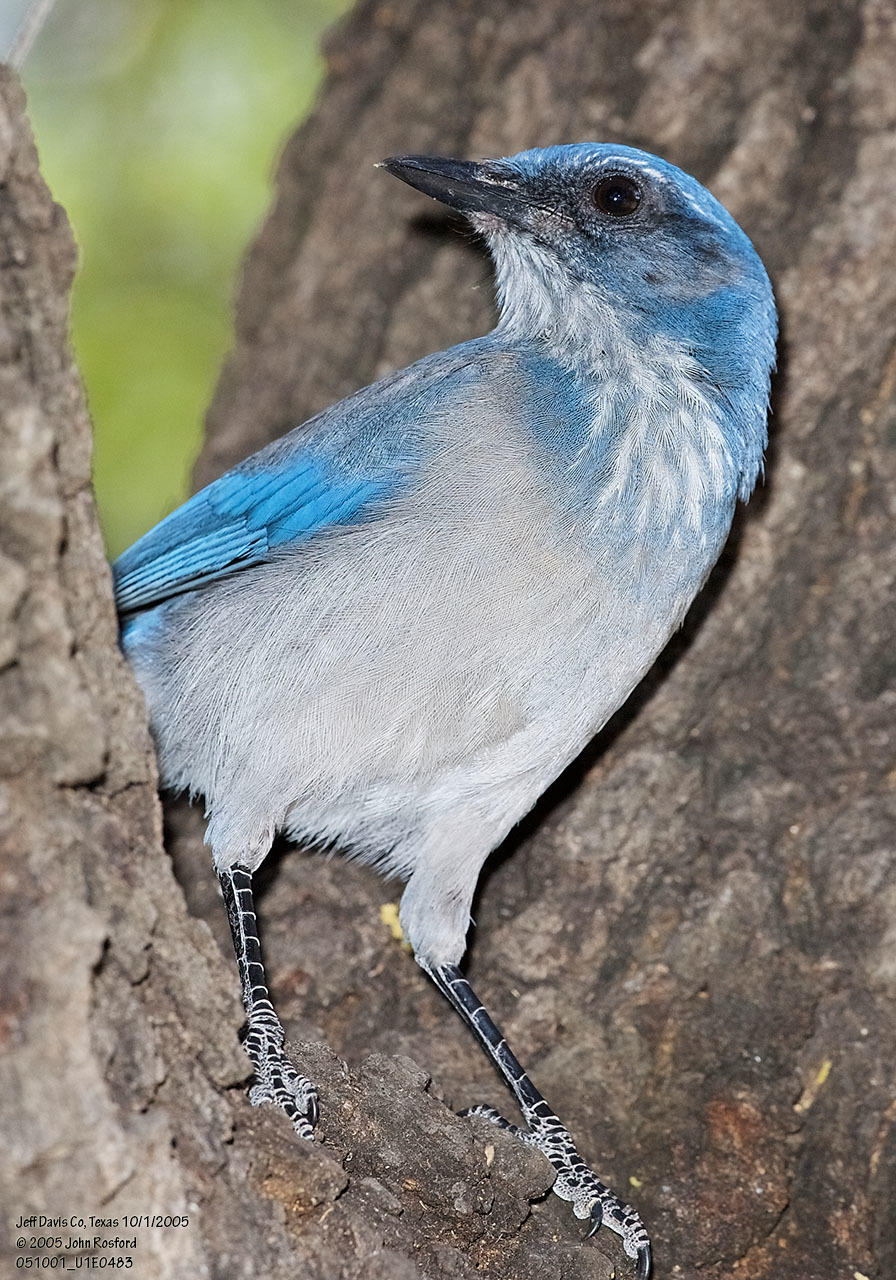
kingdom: Animalia
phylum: Chordata
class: Aves
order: Passeriformes
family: Corvidae
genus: Aphelocoma
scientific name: Aphelocoma woodhouseii
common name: Woodhouse's scrub-jay
